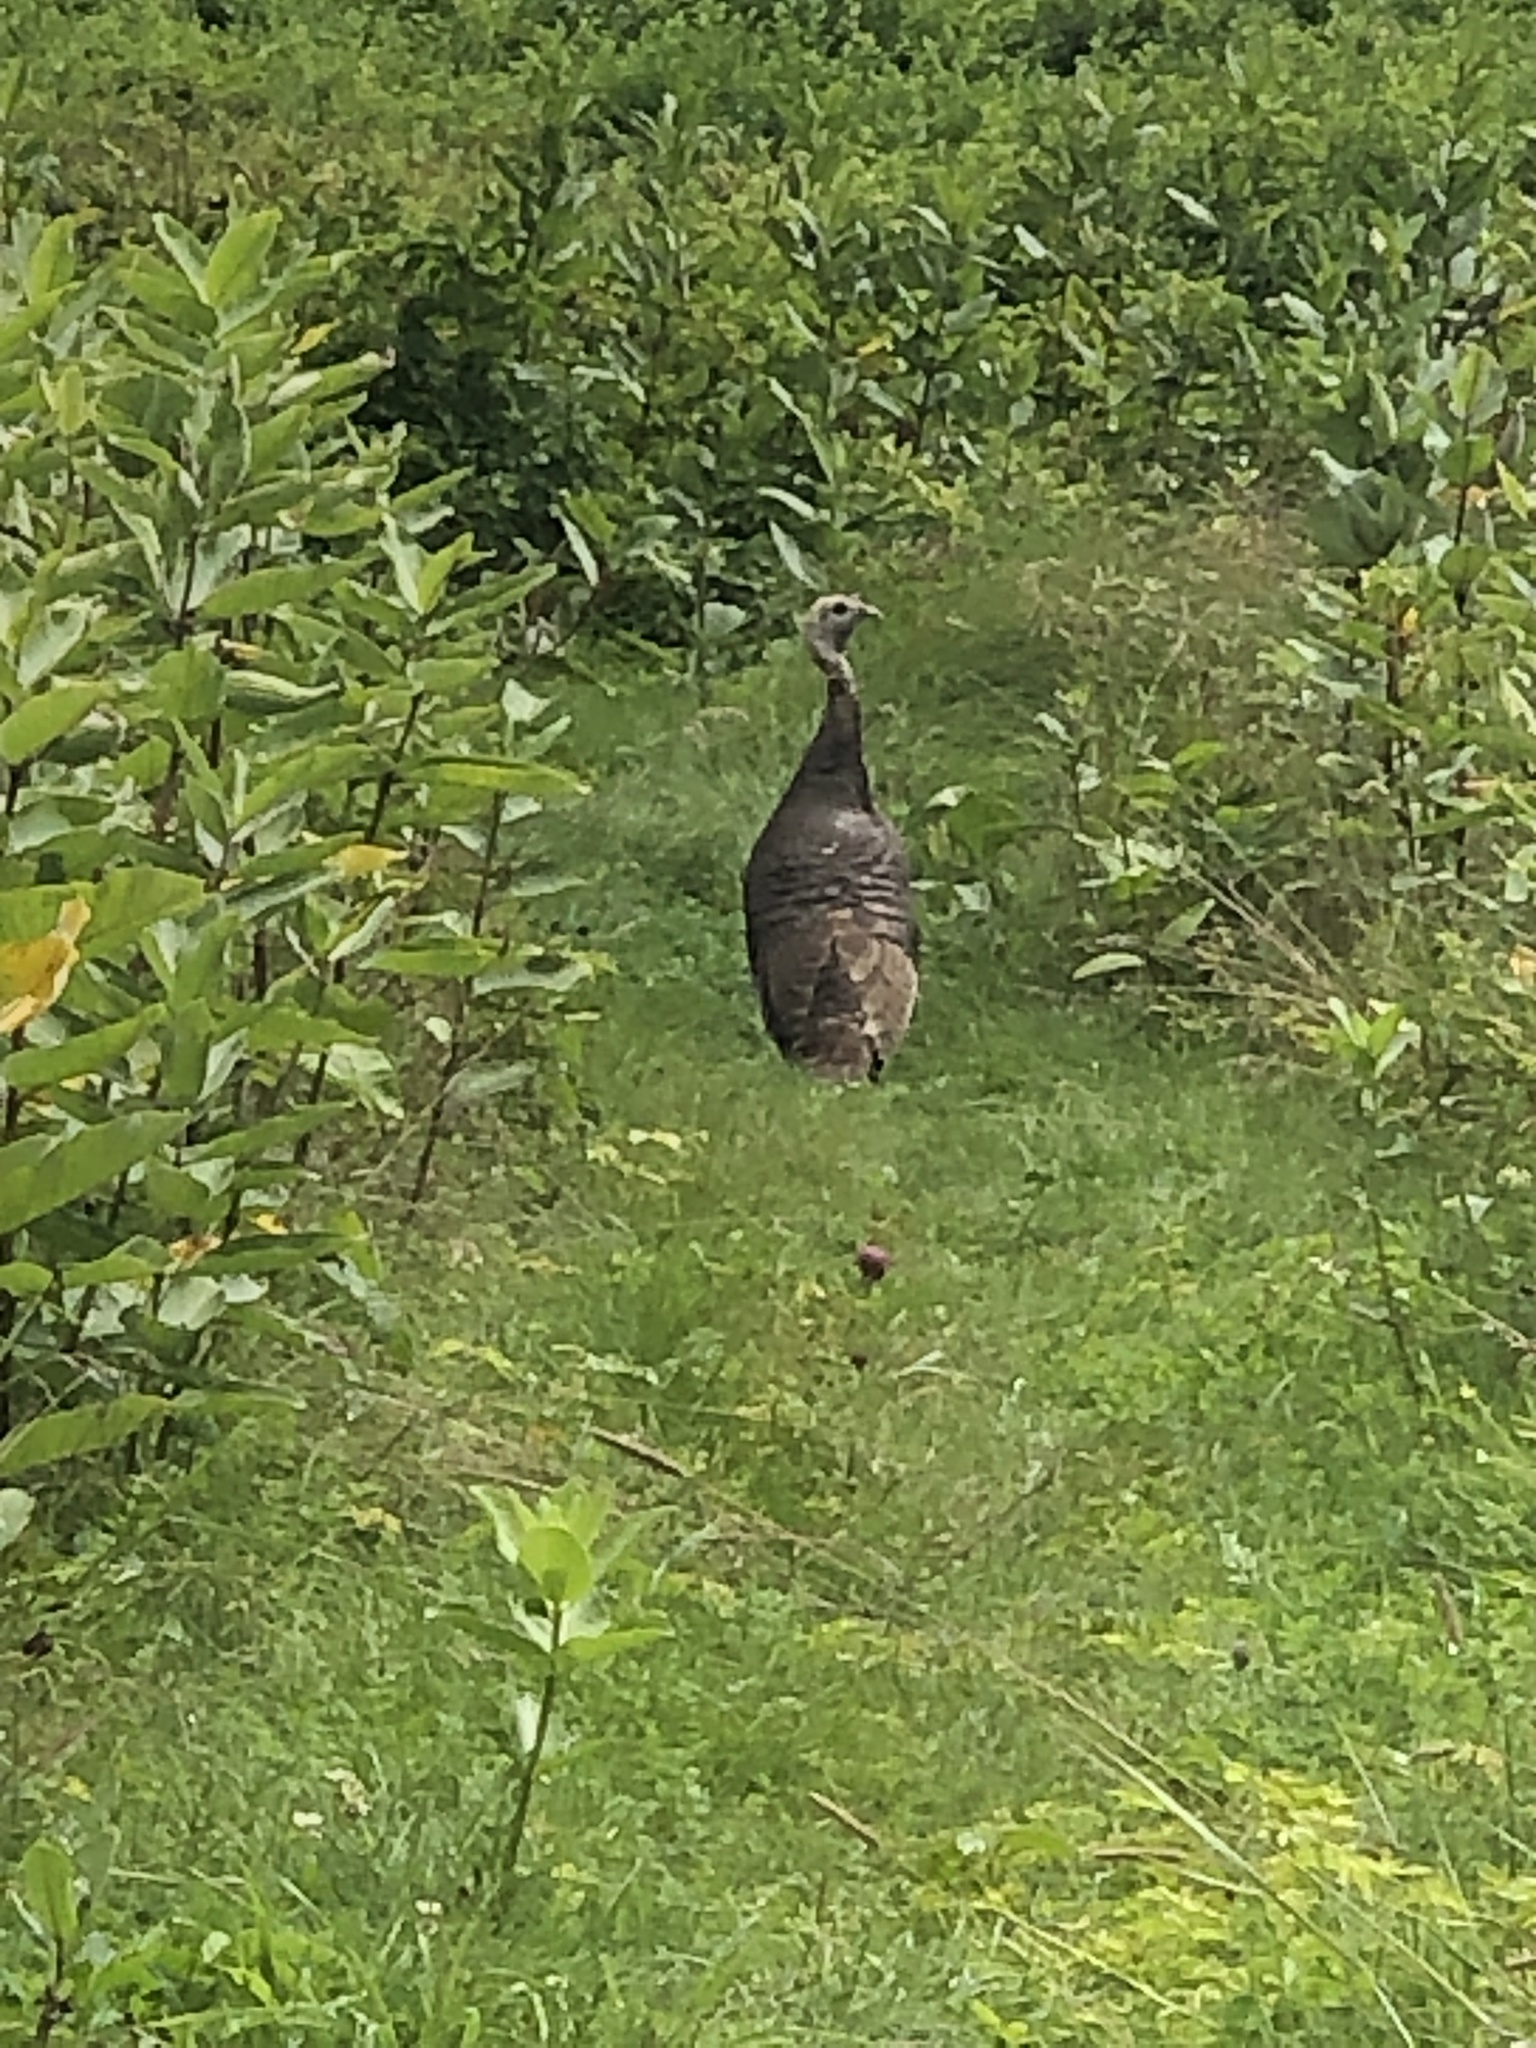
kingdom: Animalia
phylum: Chordata
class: Aves
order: Galliformes
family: Phasianidae
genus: Meleagris
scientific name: Meleagris gallopavo
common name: Wild turkey
